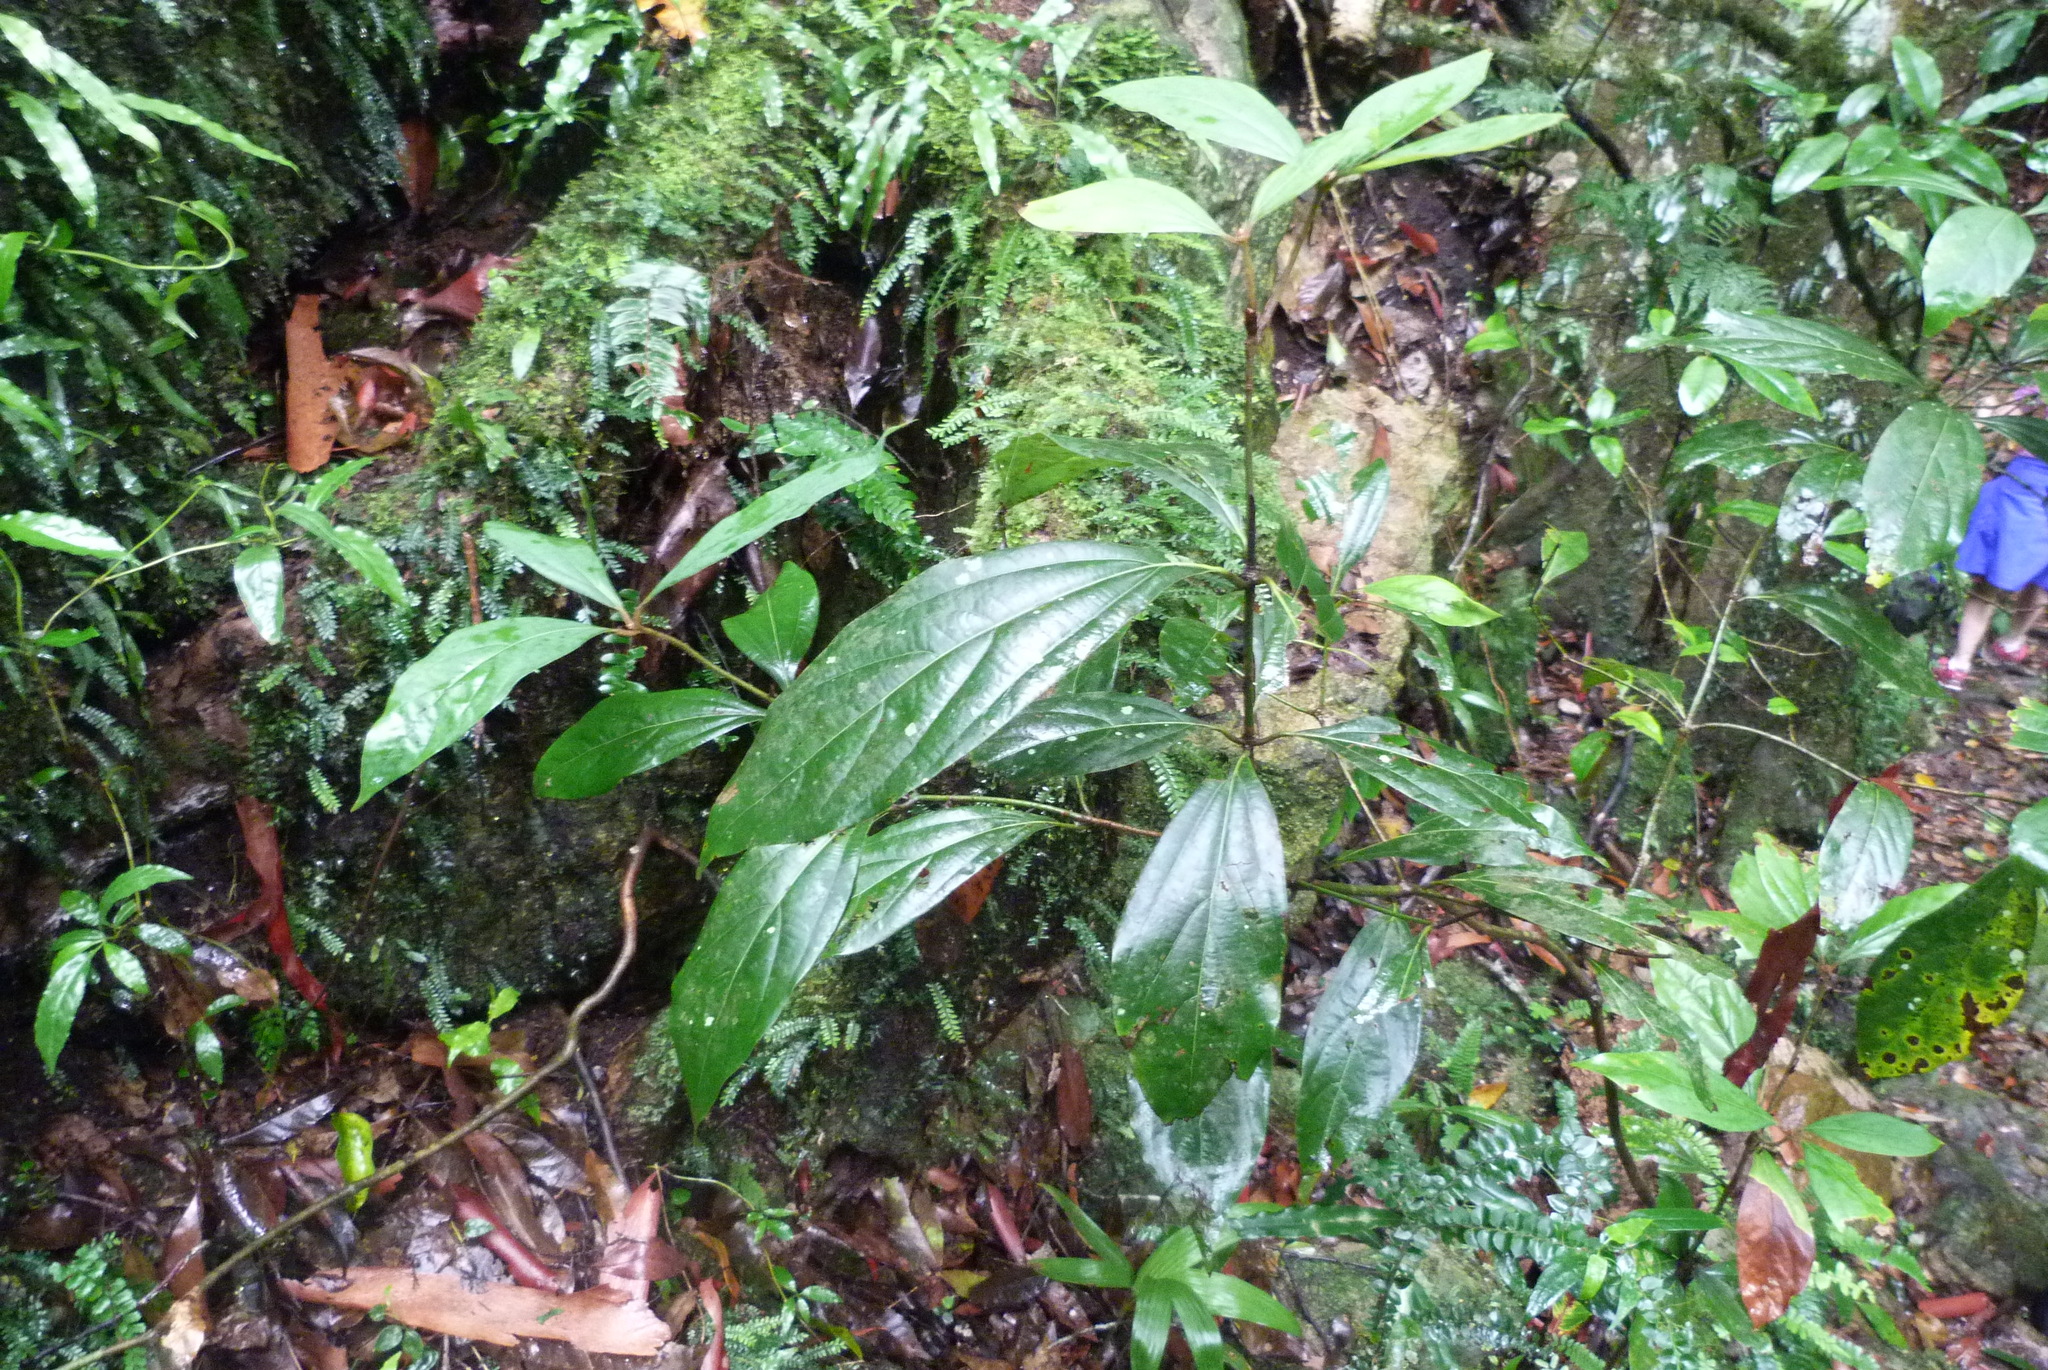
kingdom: Plantae
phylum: Tracheophyta
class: Magnoliopsida
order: Laurales
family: Lauraceae
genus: Neolitsea
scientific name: Neolitsea dealbata
